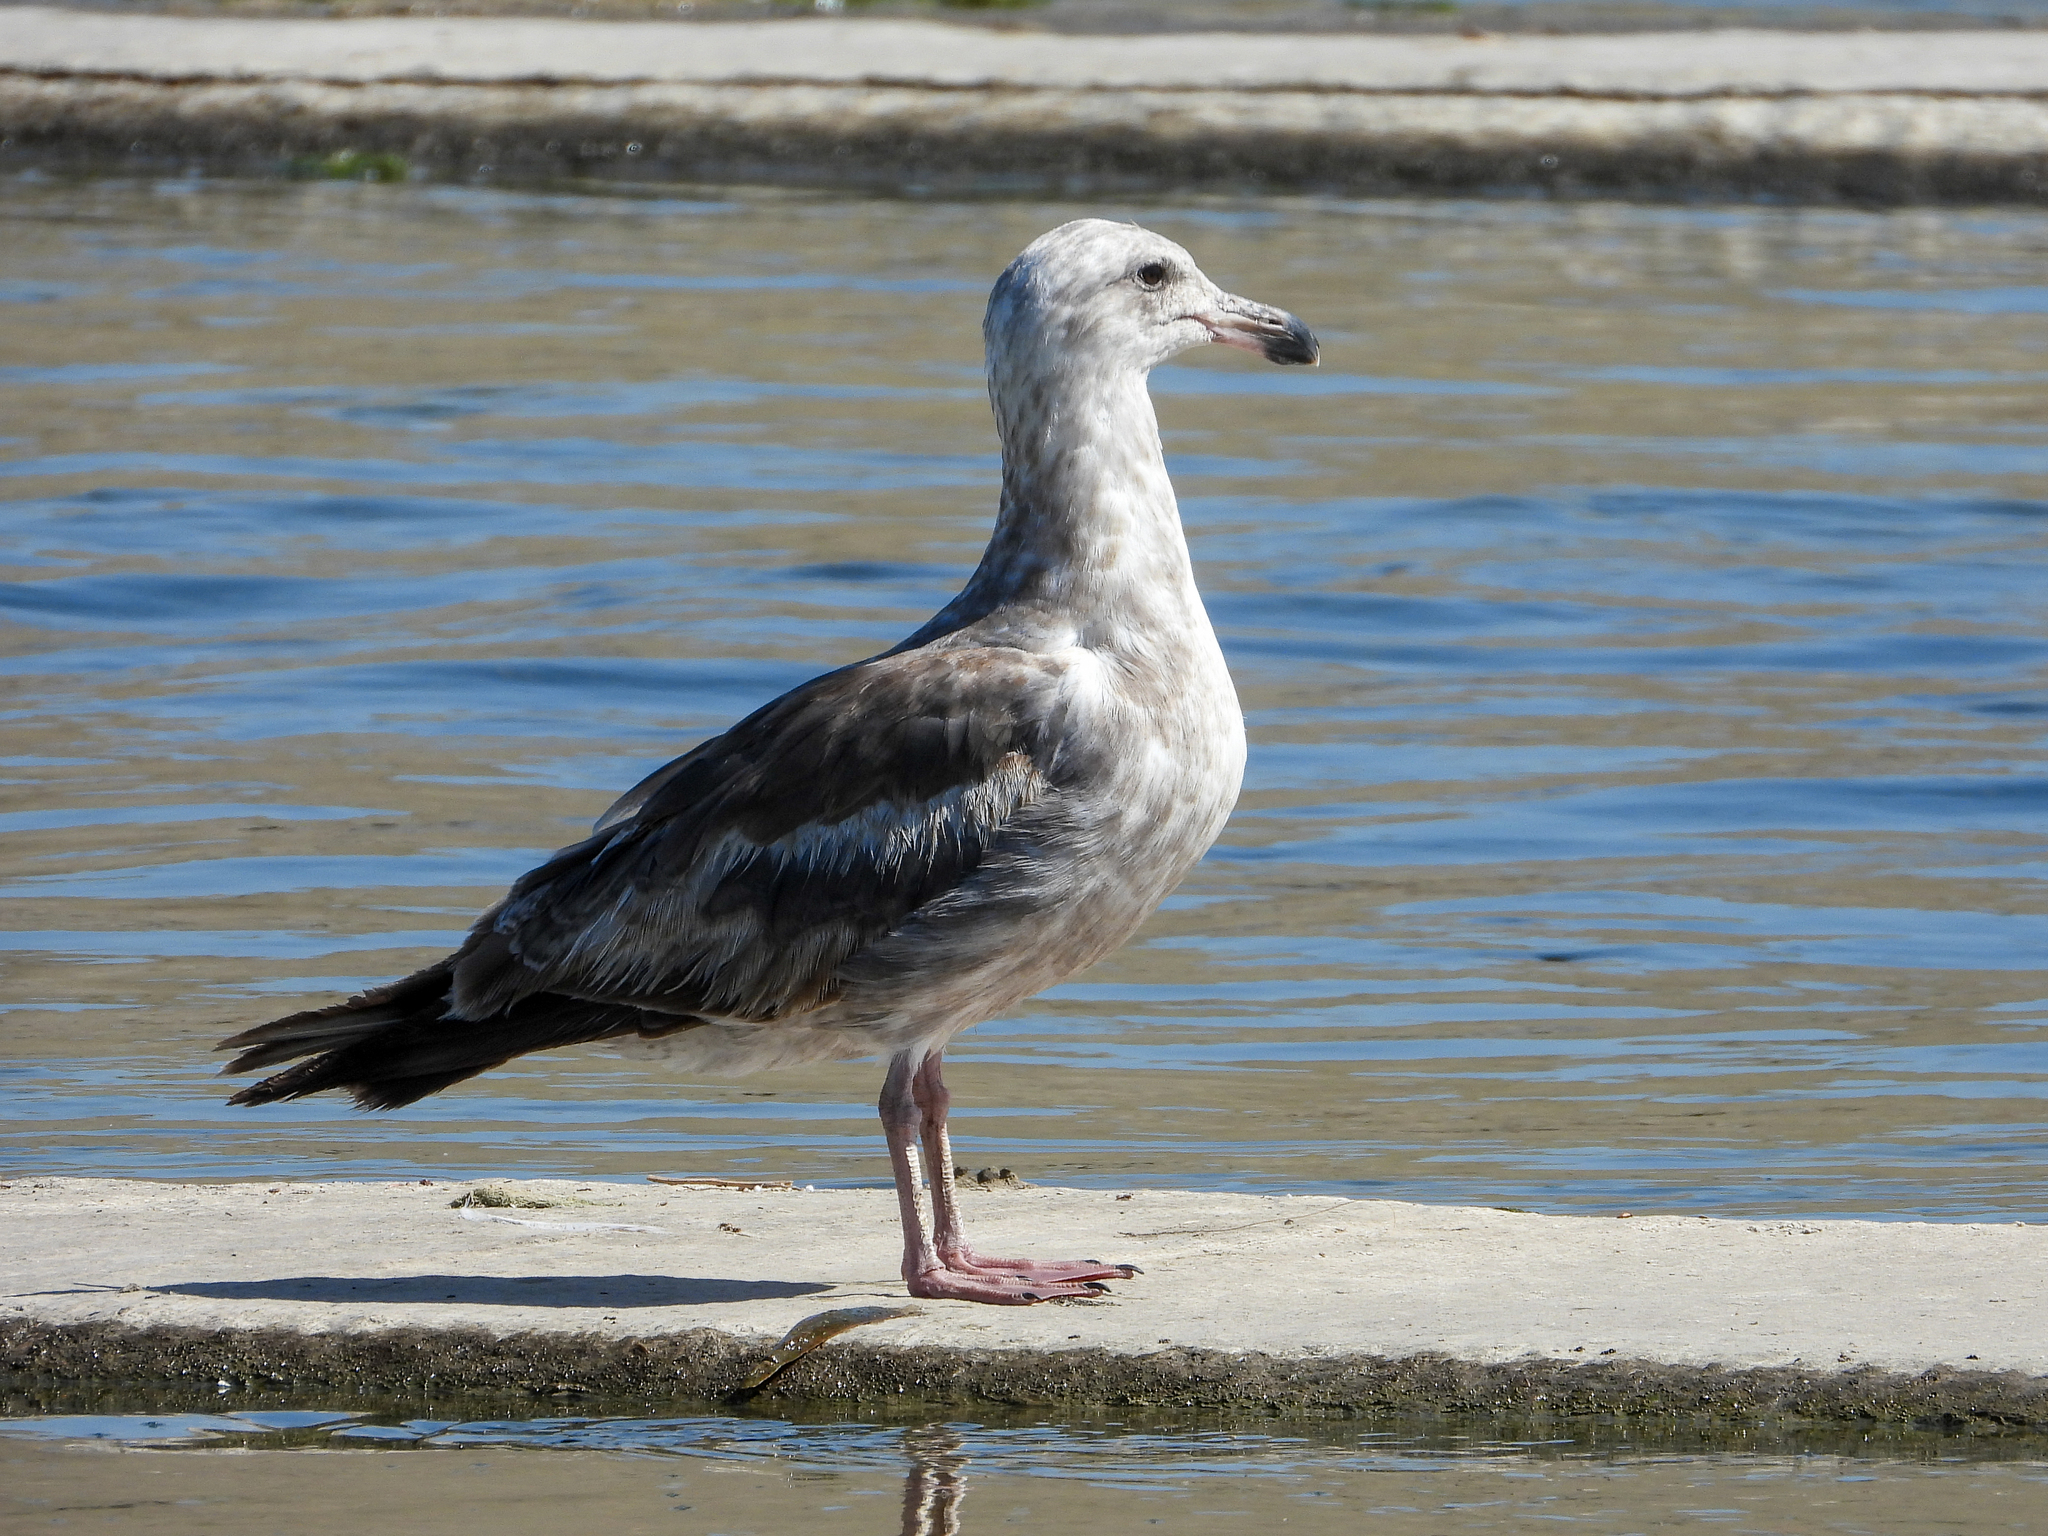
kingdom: Animalia
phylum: Chordata
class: Aves
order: Charadriiformes
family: Laridae
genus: Larus
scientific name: Larus occidentalis
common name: Western gull
